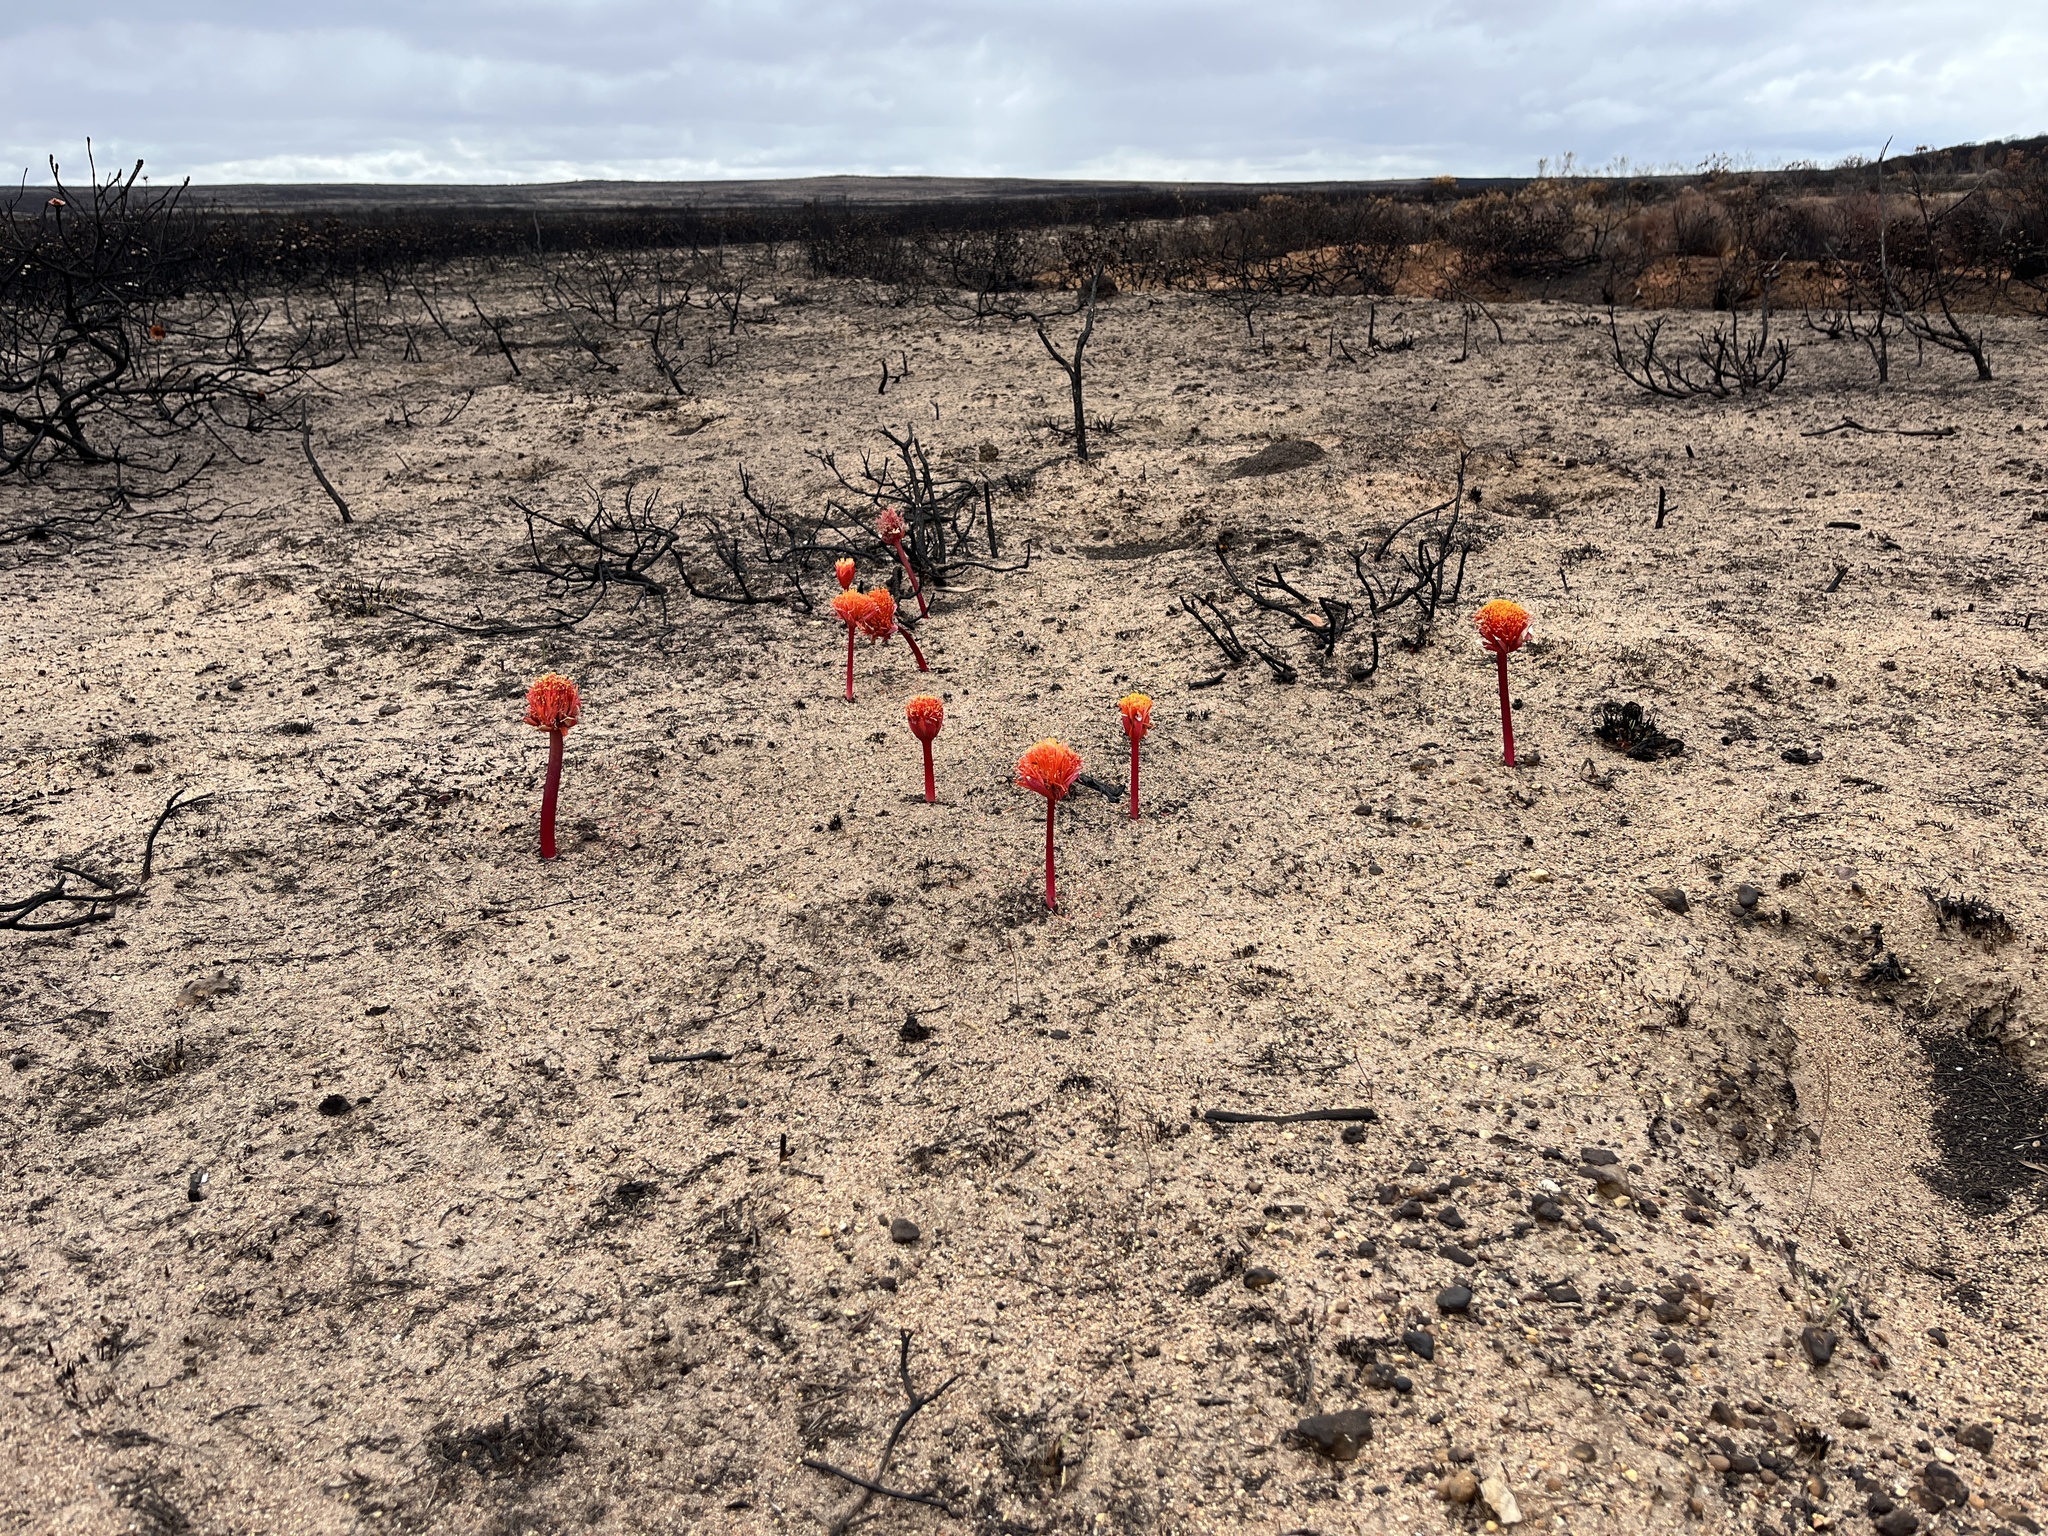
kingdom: Plantae
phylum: Tracheophyta
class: Liliopsida
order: Asparagales
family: Amaryllidaceae
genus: Haemanthus
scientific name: Haemanthus sanguineus
